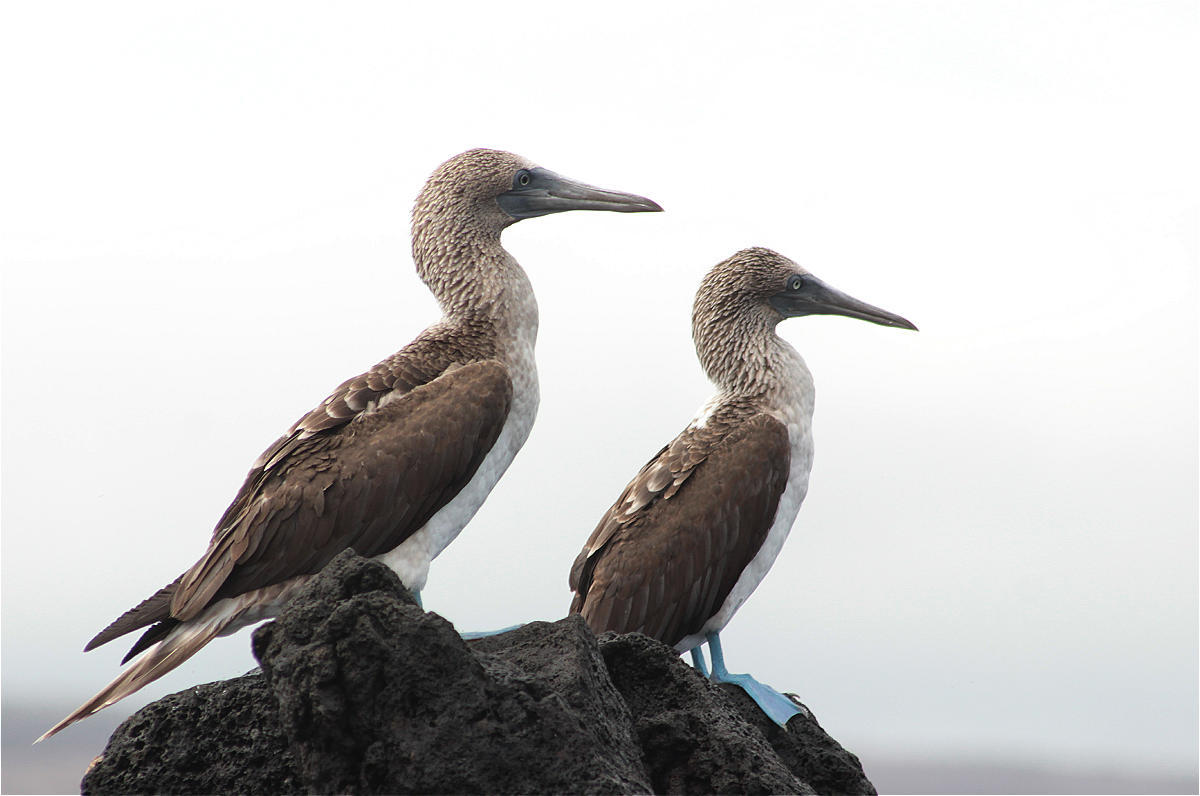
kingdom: Animalia
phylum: Chordata
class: Aves
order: Suliformes
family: Sulidae
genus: Sula
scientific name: Sula nebouxii
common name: Blue-footed booby
